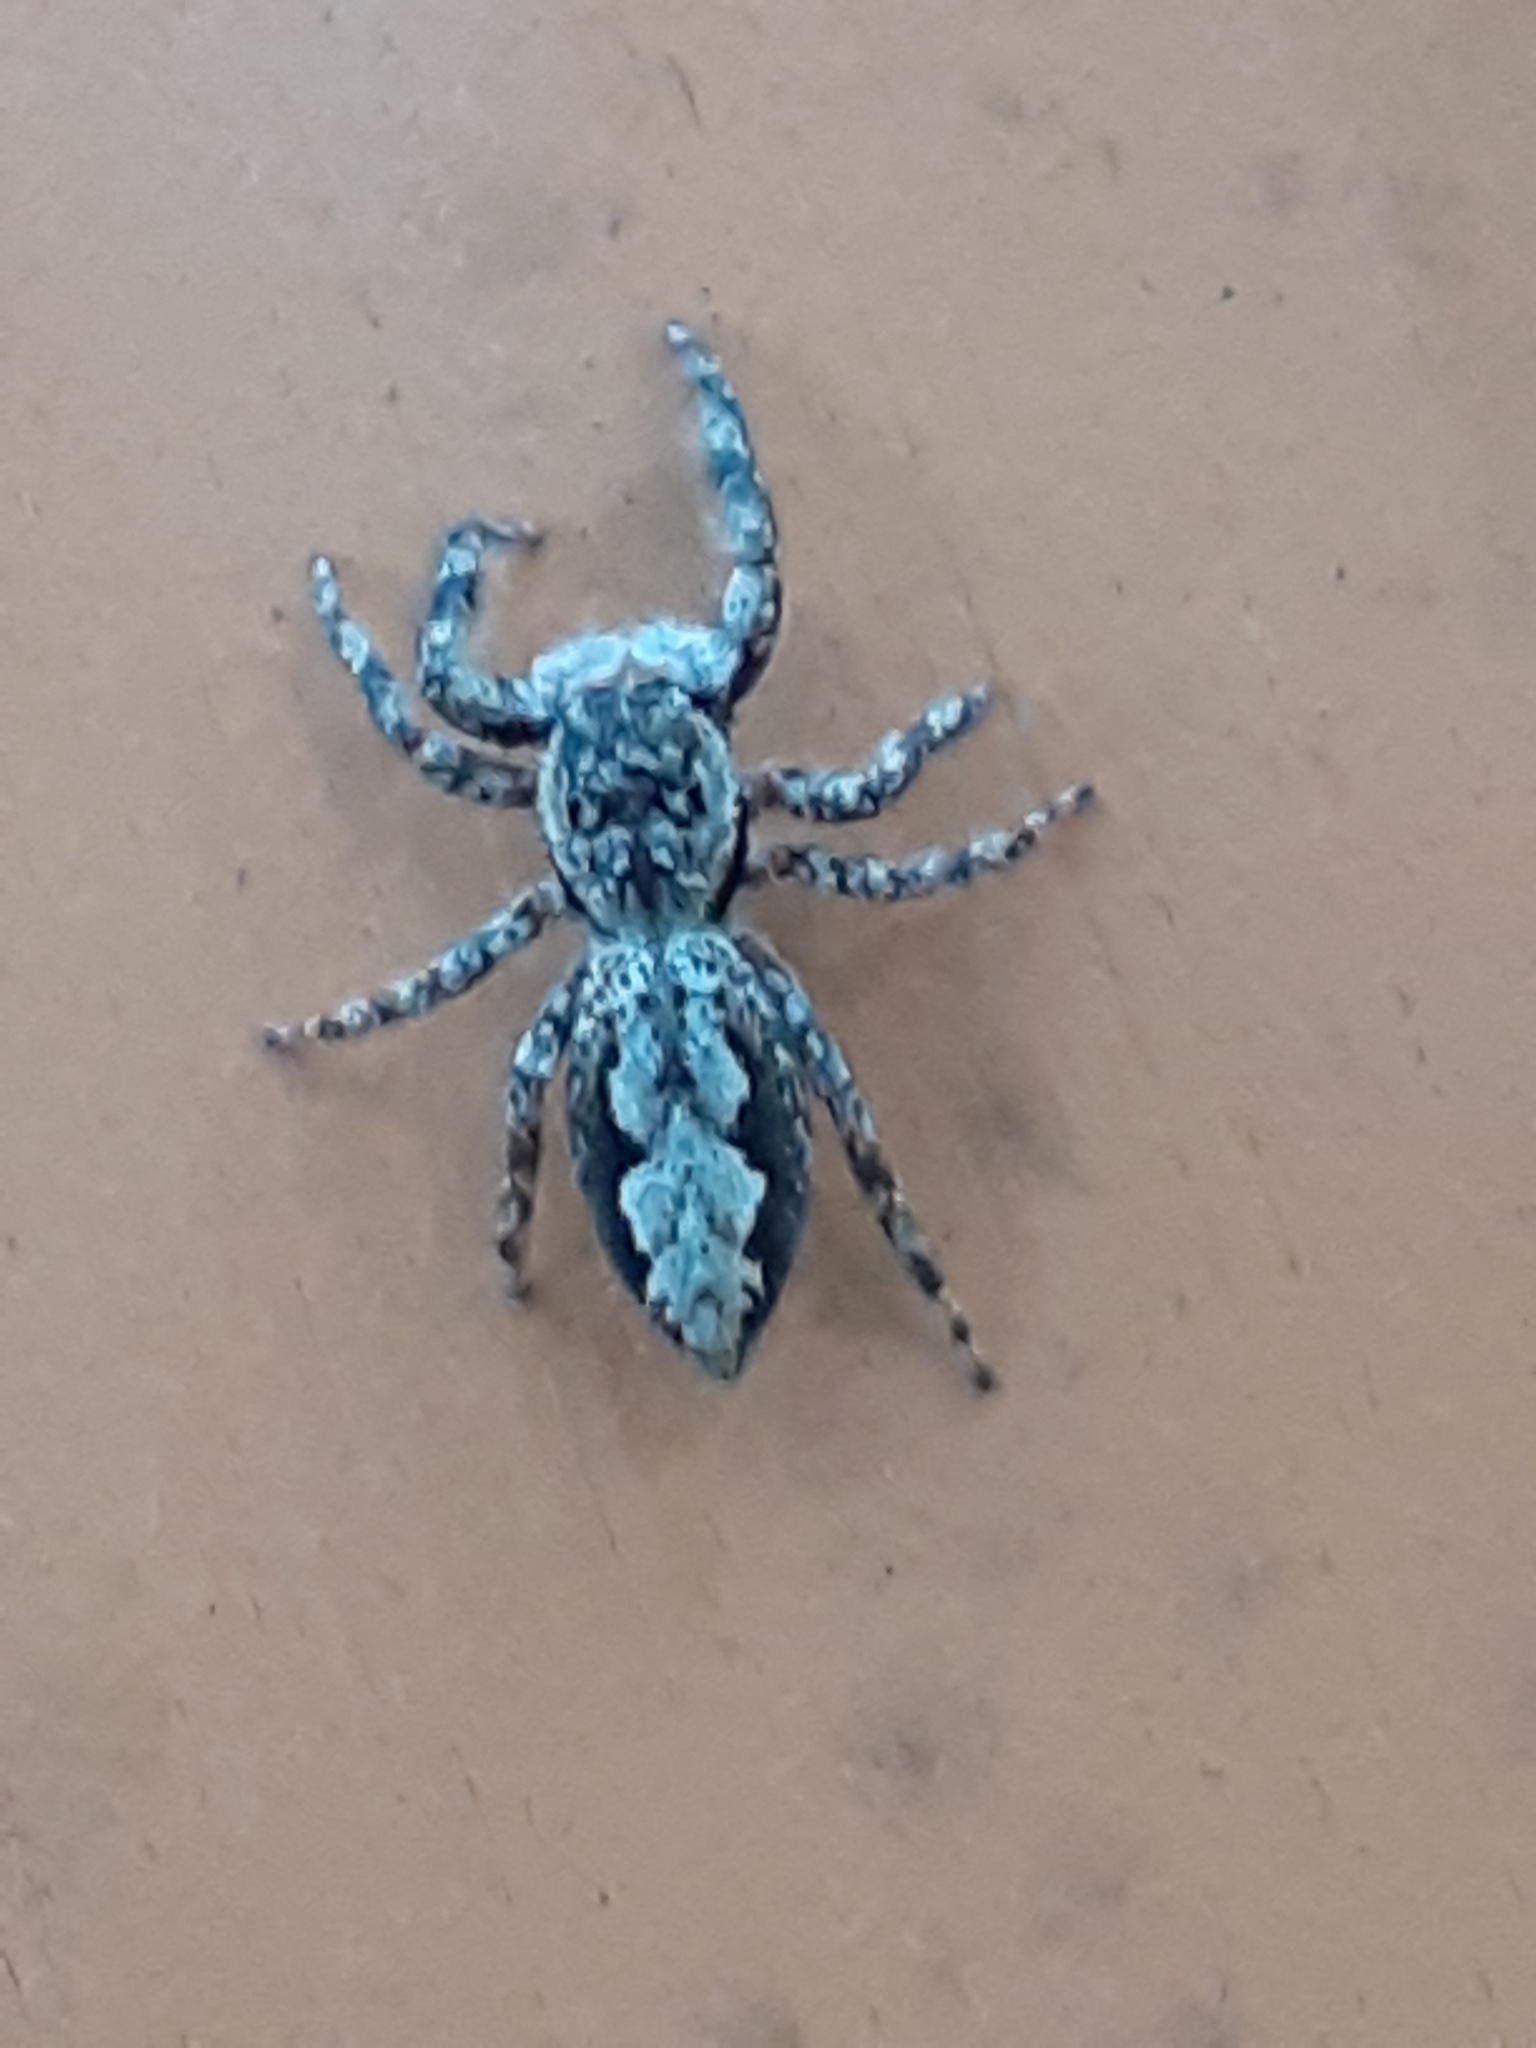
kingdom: Animalia
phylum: Arthropoda
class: Arachnida
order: Araneae
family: Salticidae
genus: Platycryptus
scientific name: Platycryptus undatus
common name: Tan jumping spider
